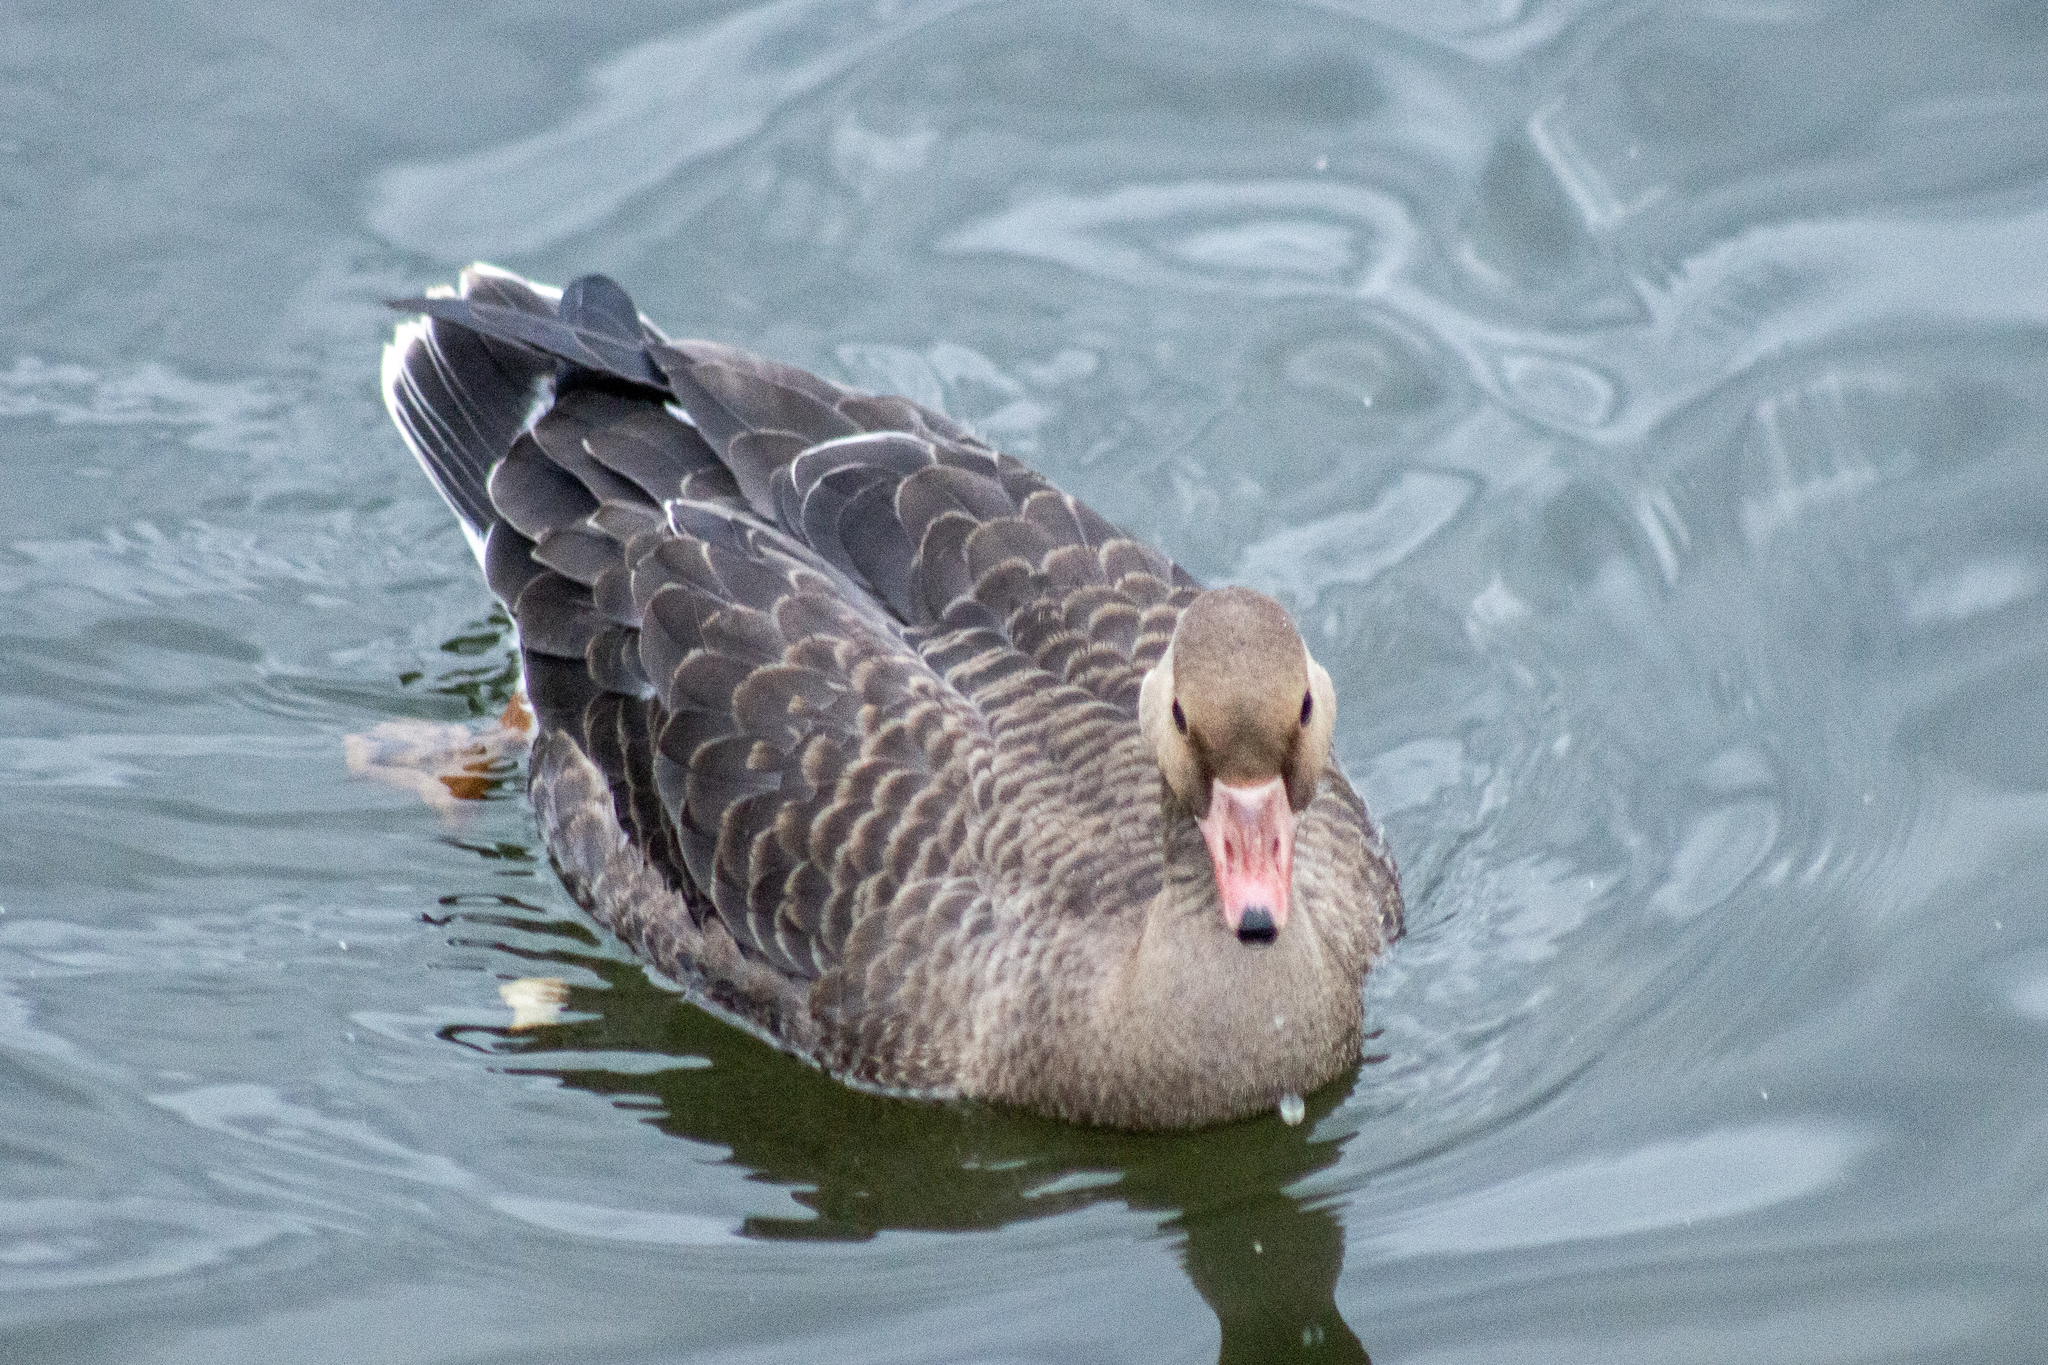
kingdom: Animalia
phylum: Chordata
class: Aves
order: Anseriformes
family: Anatidae
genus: Anser
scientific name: Anser albifrons
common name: Greater white-fronted goose
